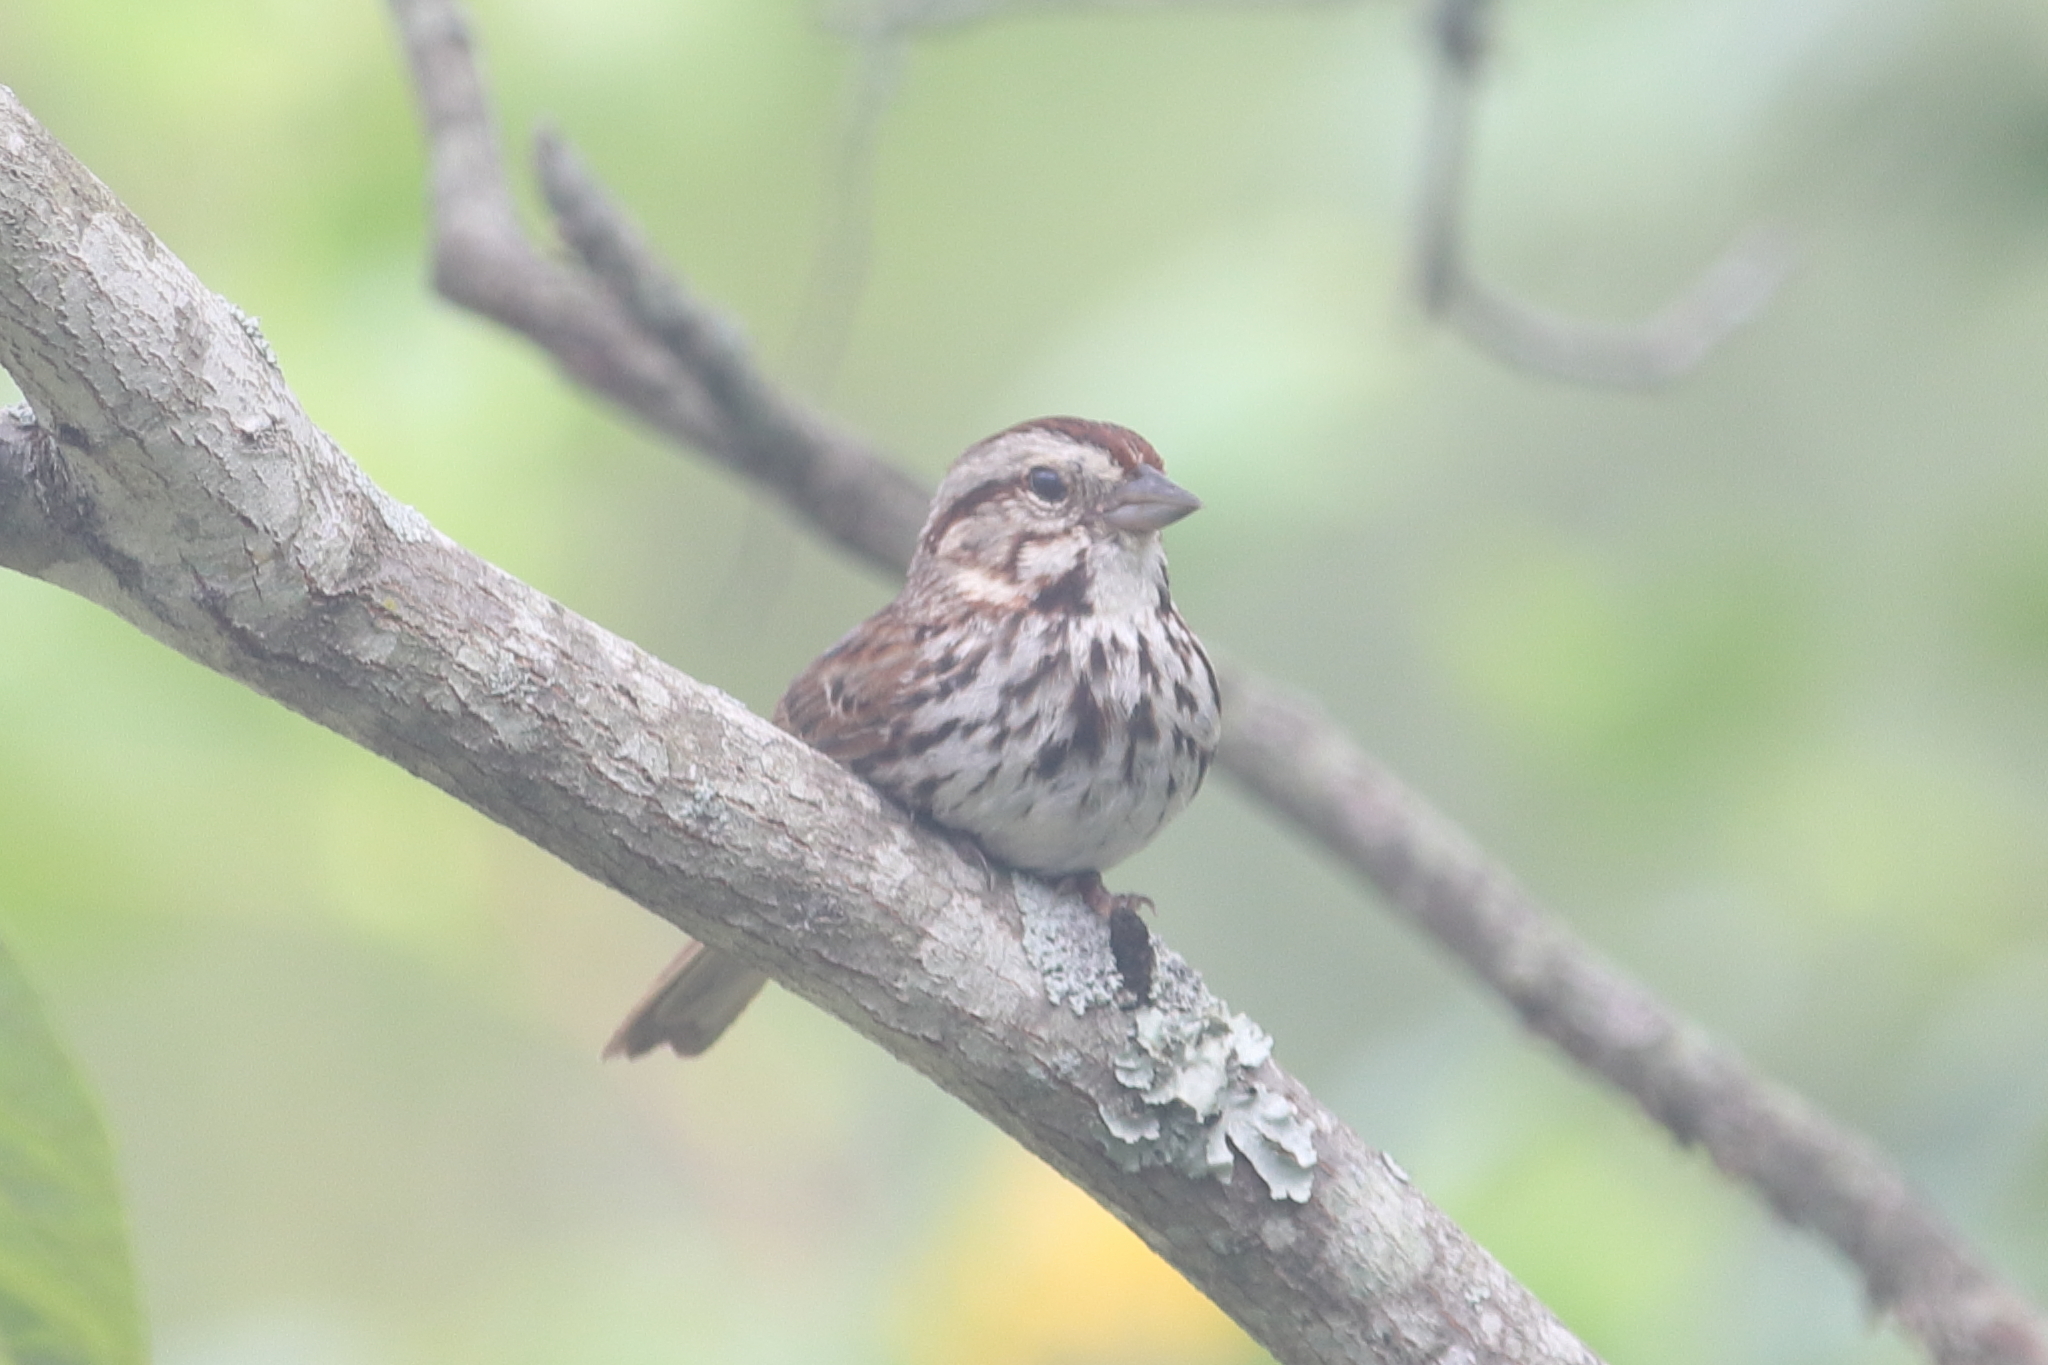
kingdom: Animalia
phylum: Chordata
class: Aves
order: Passeriformes
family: Passerellidae
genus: Melospiza
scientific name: Melospiza melodia
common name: Song sparrow
